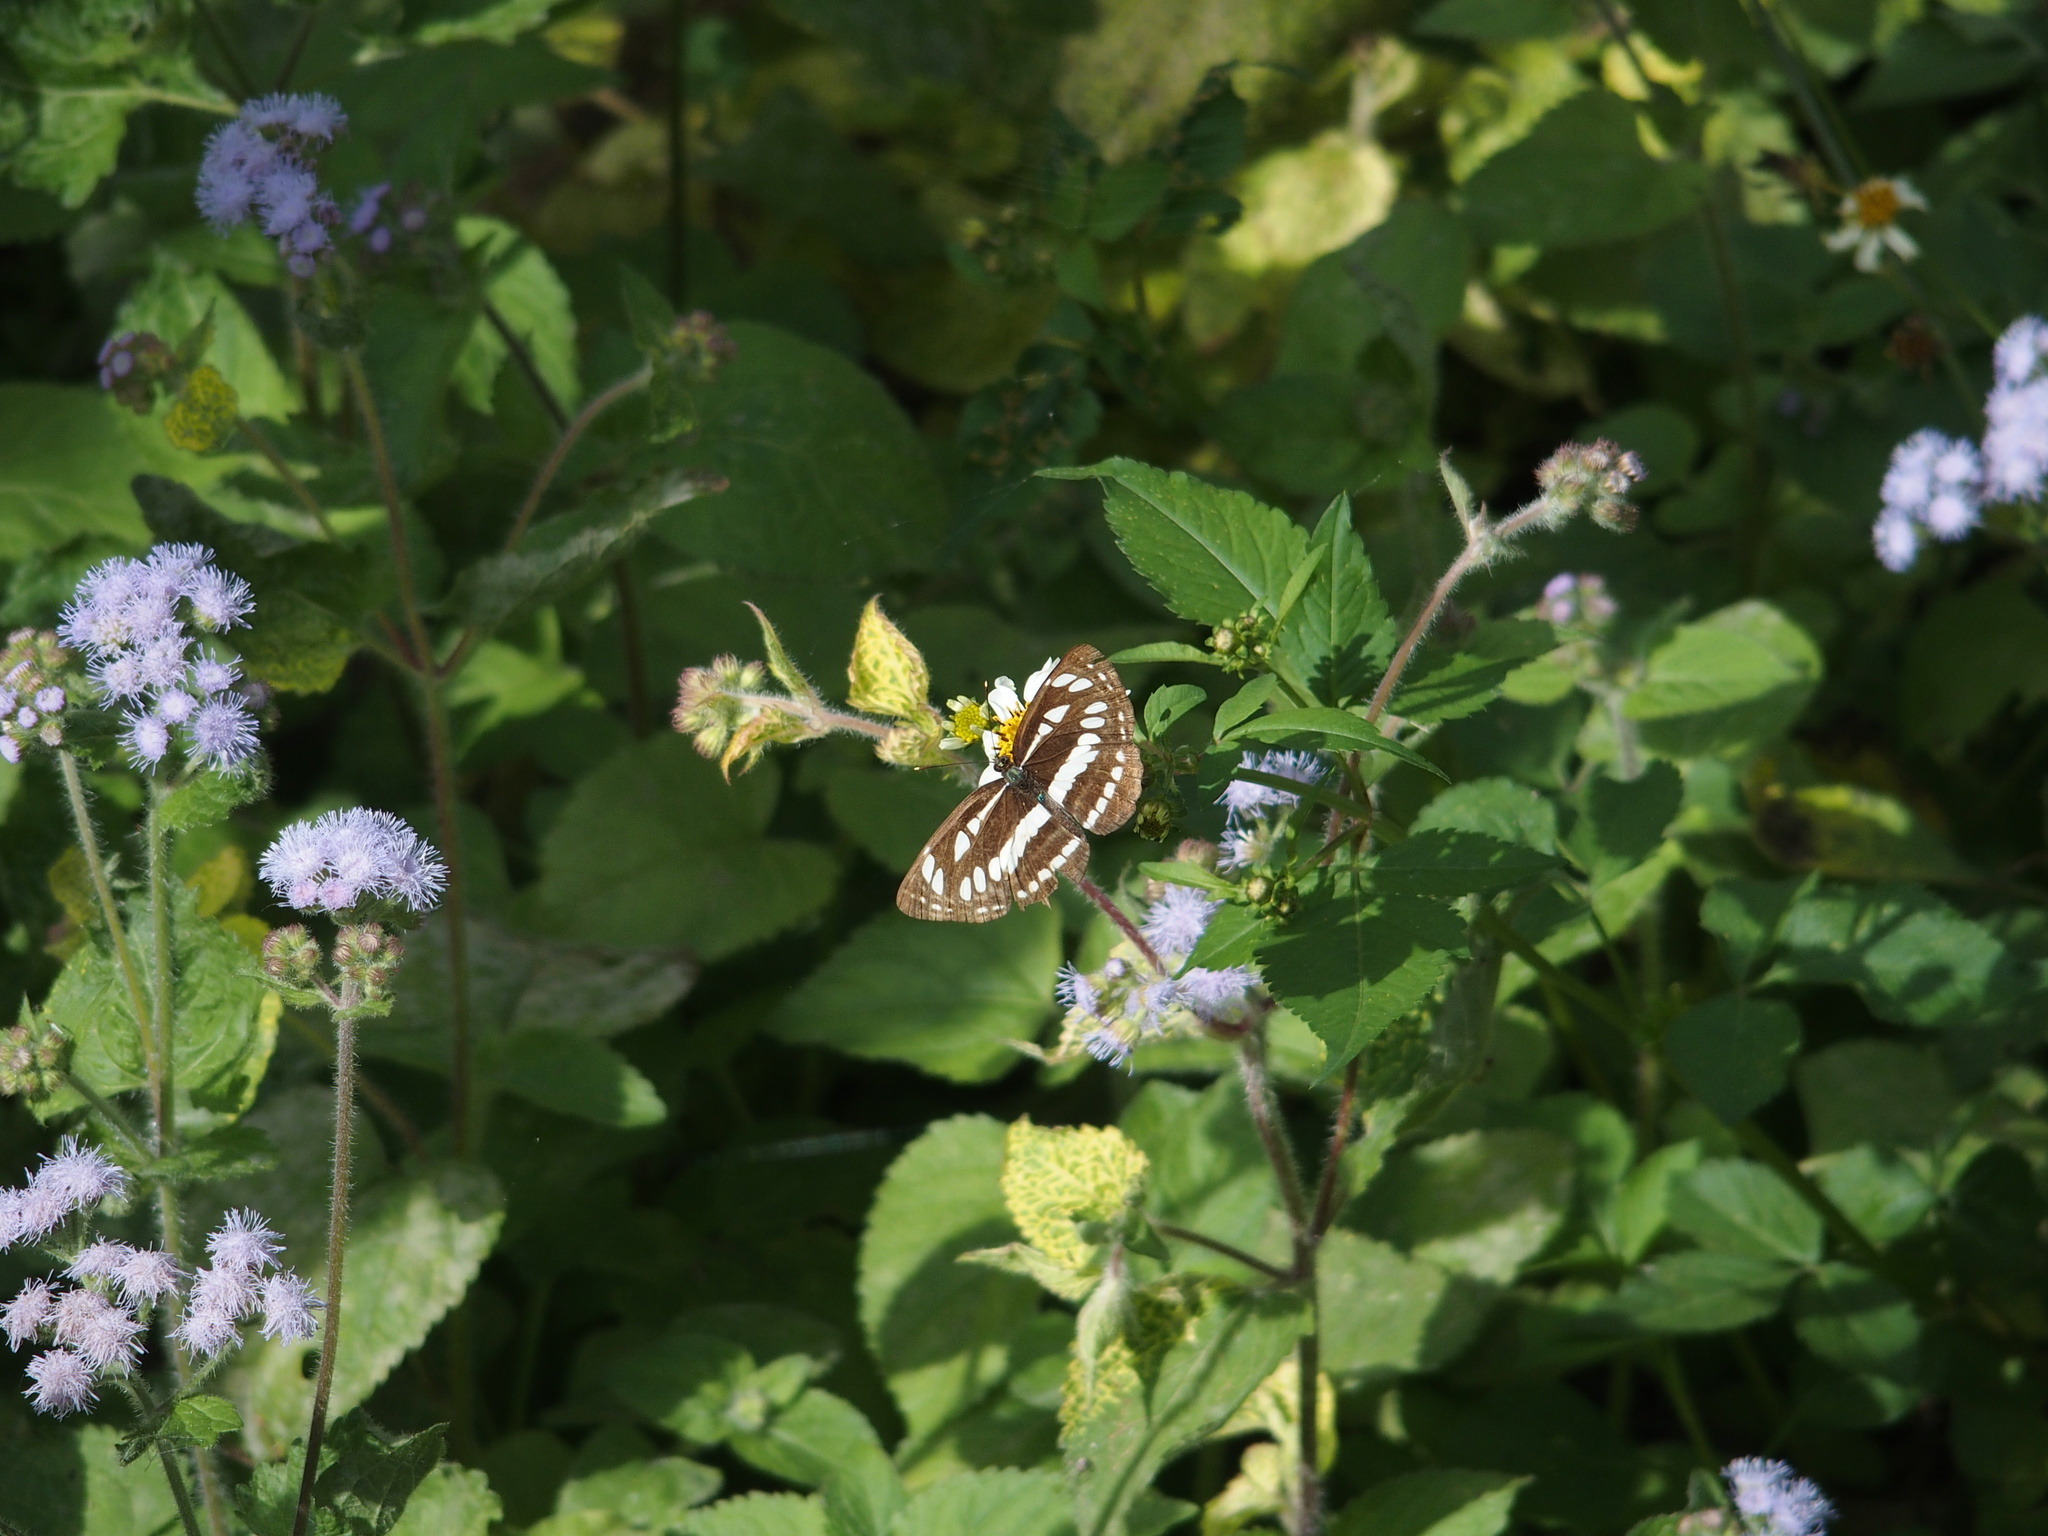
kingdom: Animalia
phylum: Arthropoda
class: Insecta
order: Lepidoptera
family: Nymphalidae
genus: Neptis
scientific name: Neptis hylas
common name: Common sailer
